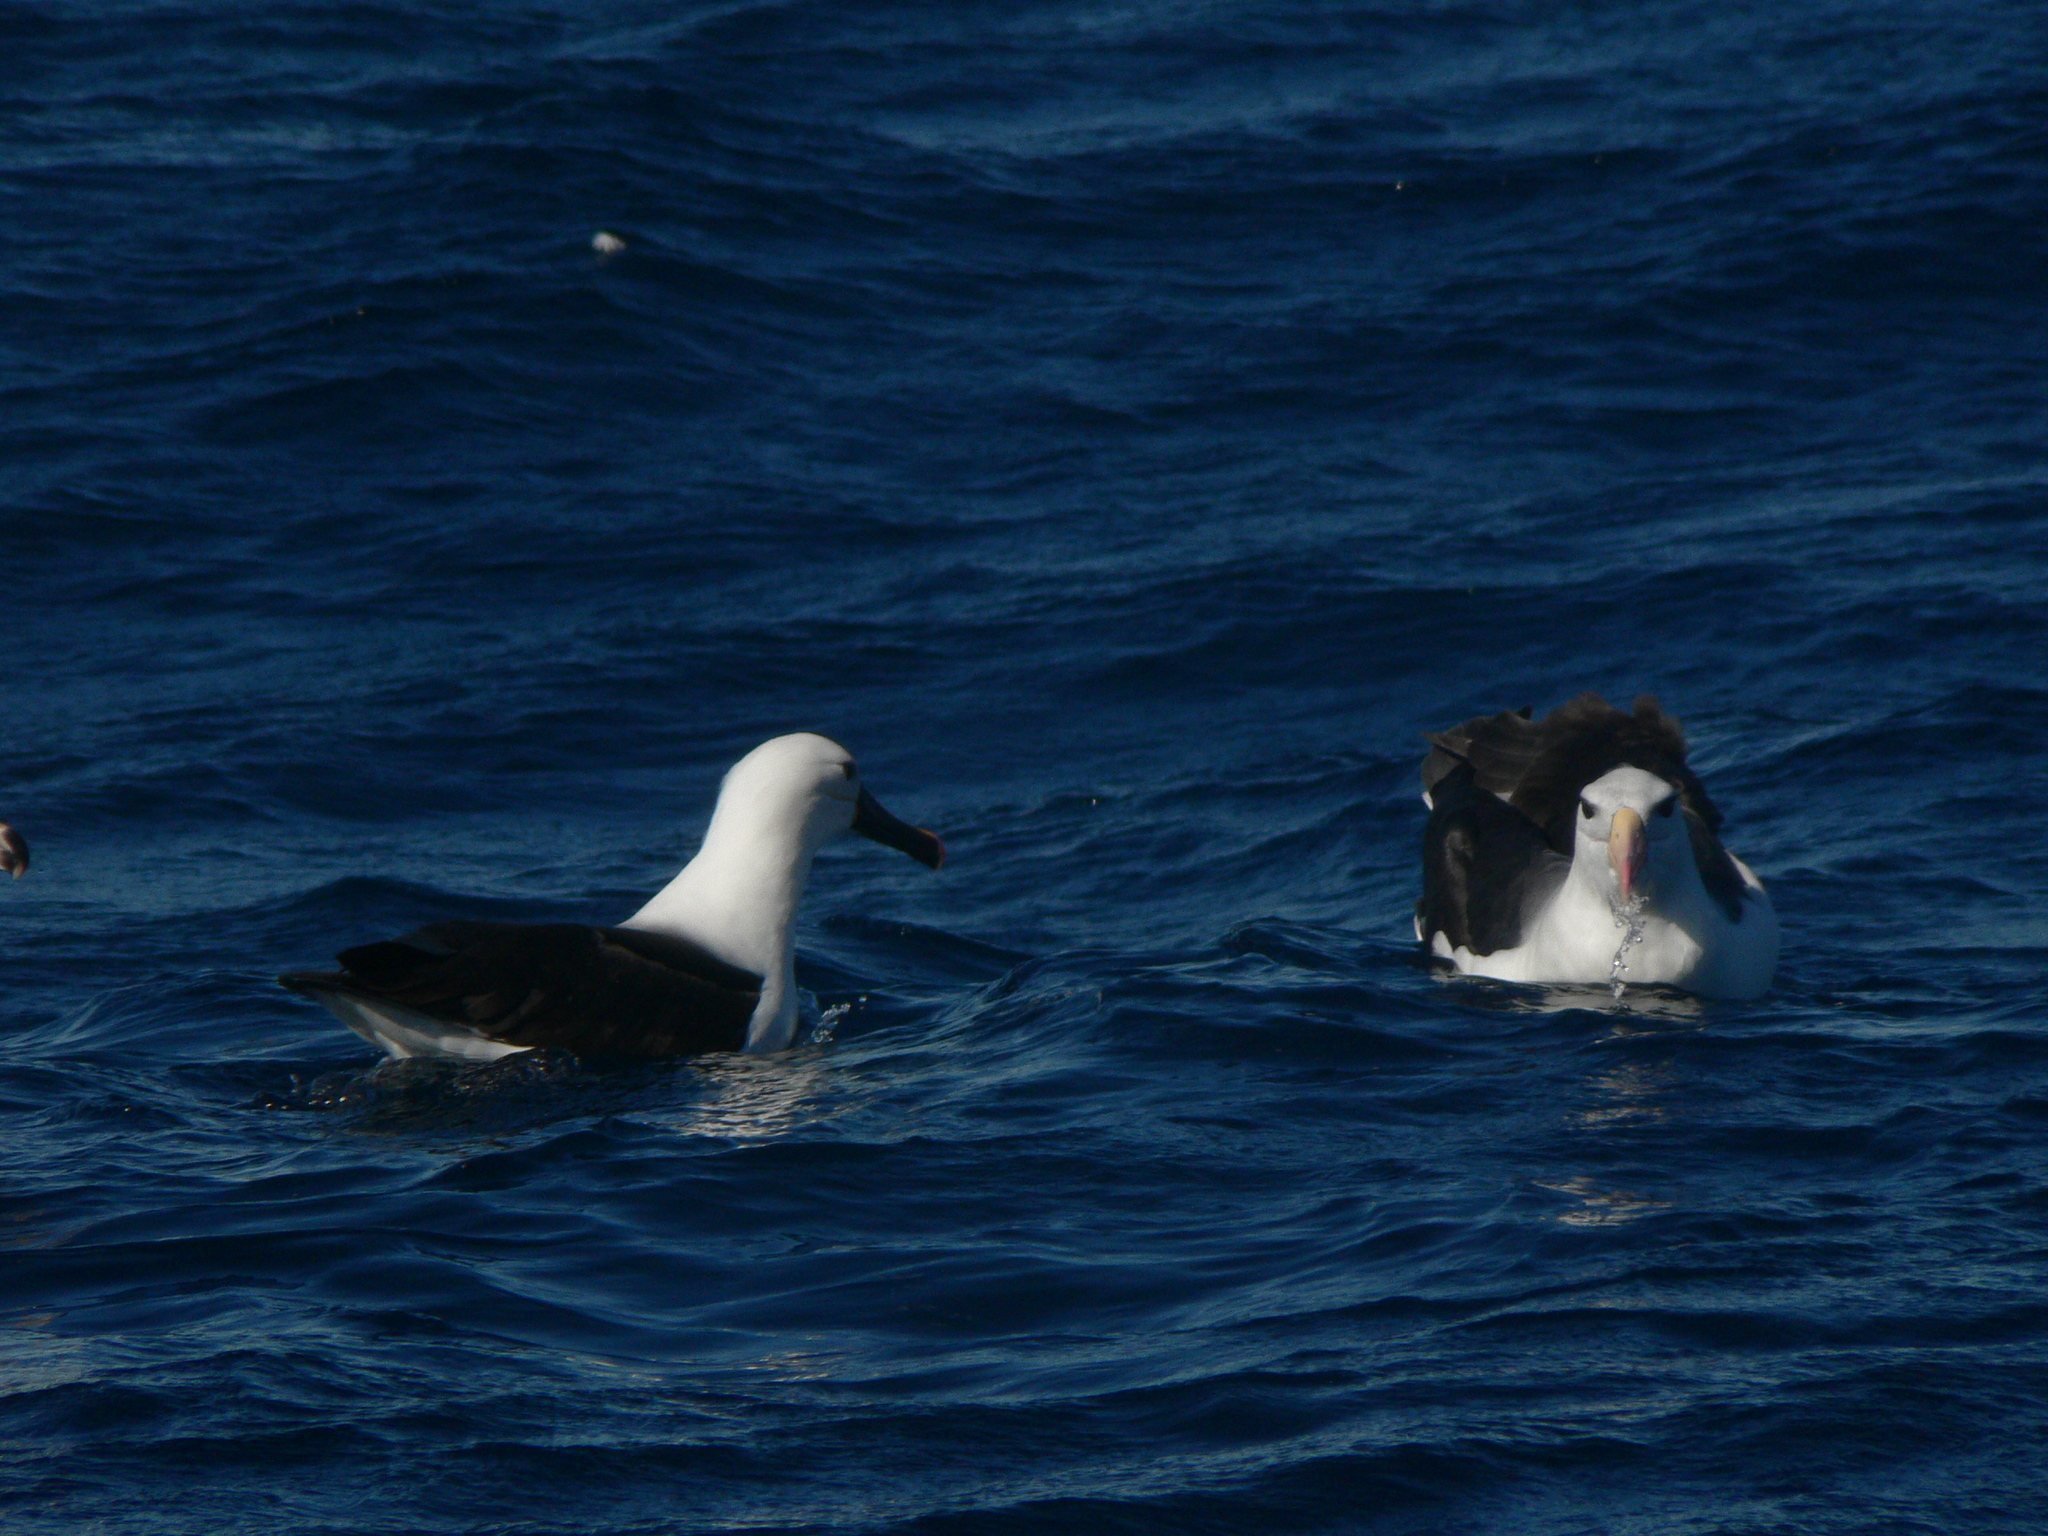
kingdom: Animalia
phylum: Chordata
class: Aves
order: Procellariiformes
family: Diomedeidae
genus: Thalassarche
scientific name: Thalassarche carteri
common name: Indian yellow-nosed albatross
